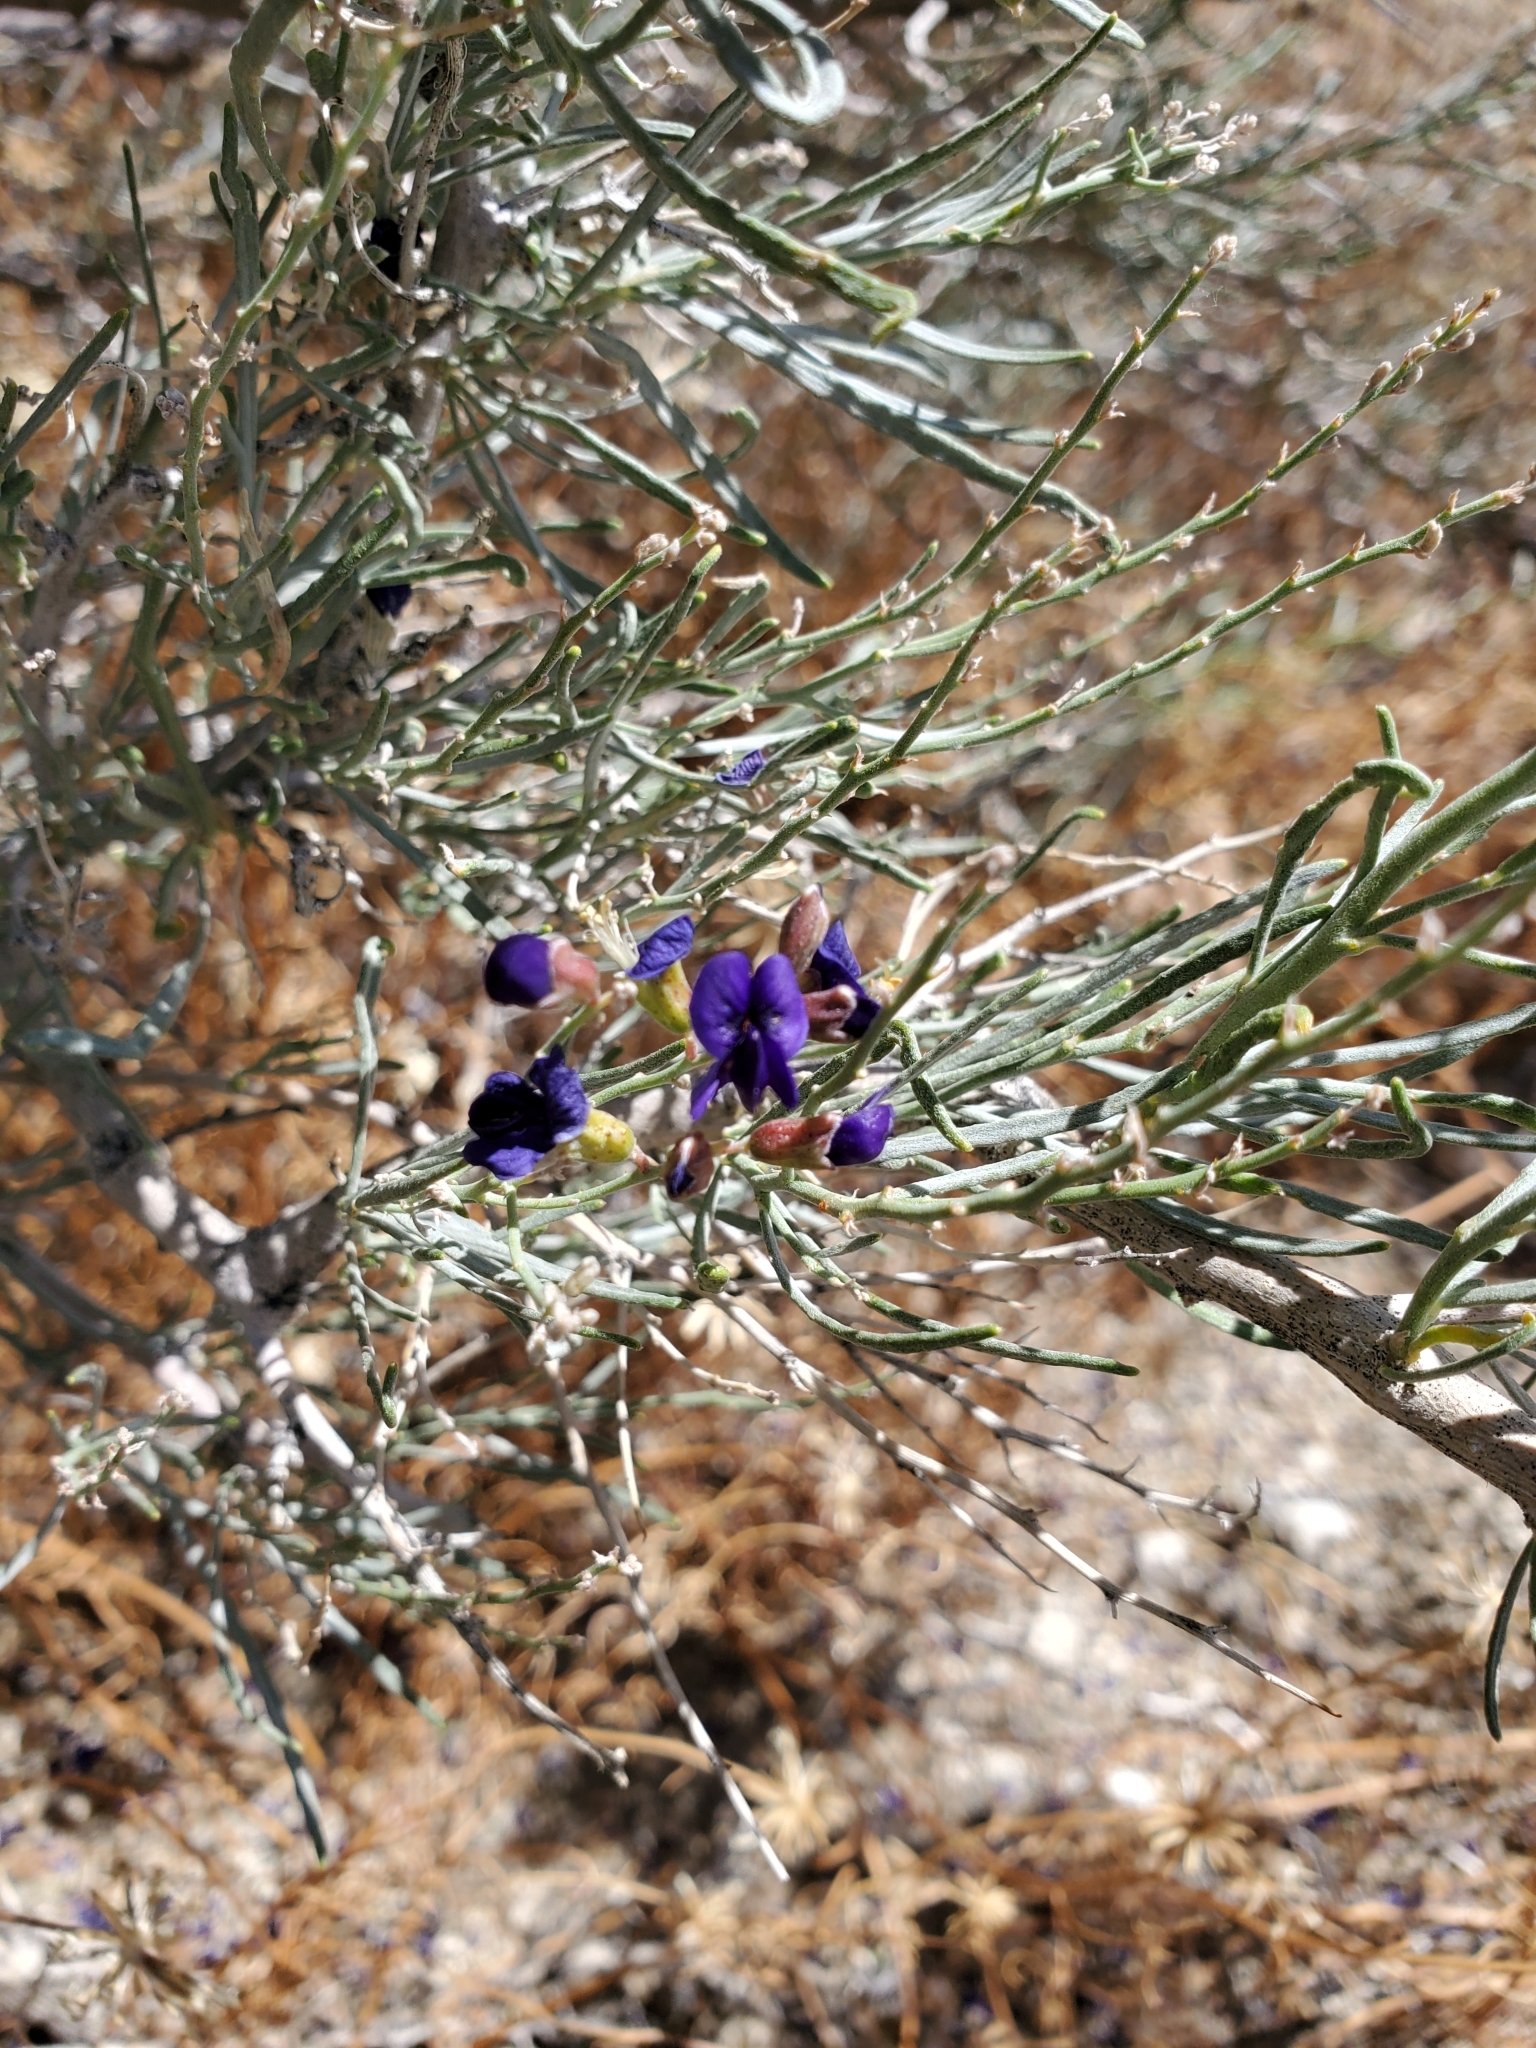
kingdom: Plantae
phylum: Tracheophyta
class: Magnoliopsida
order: Fabales
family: Fabaceae
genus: Psorothamnus
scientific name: Psorothamnus schottii
